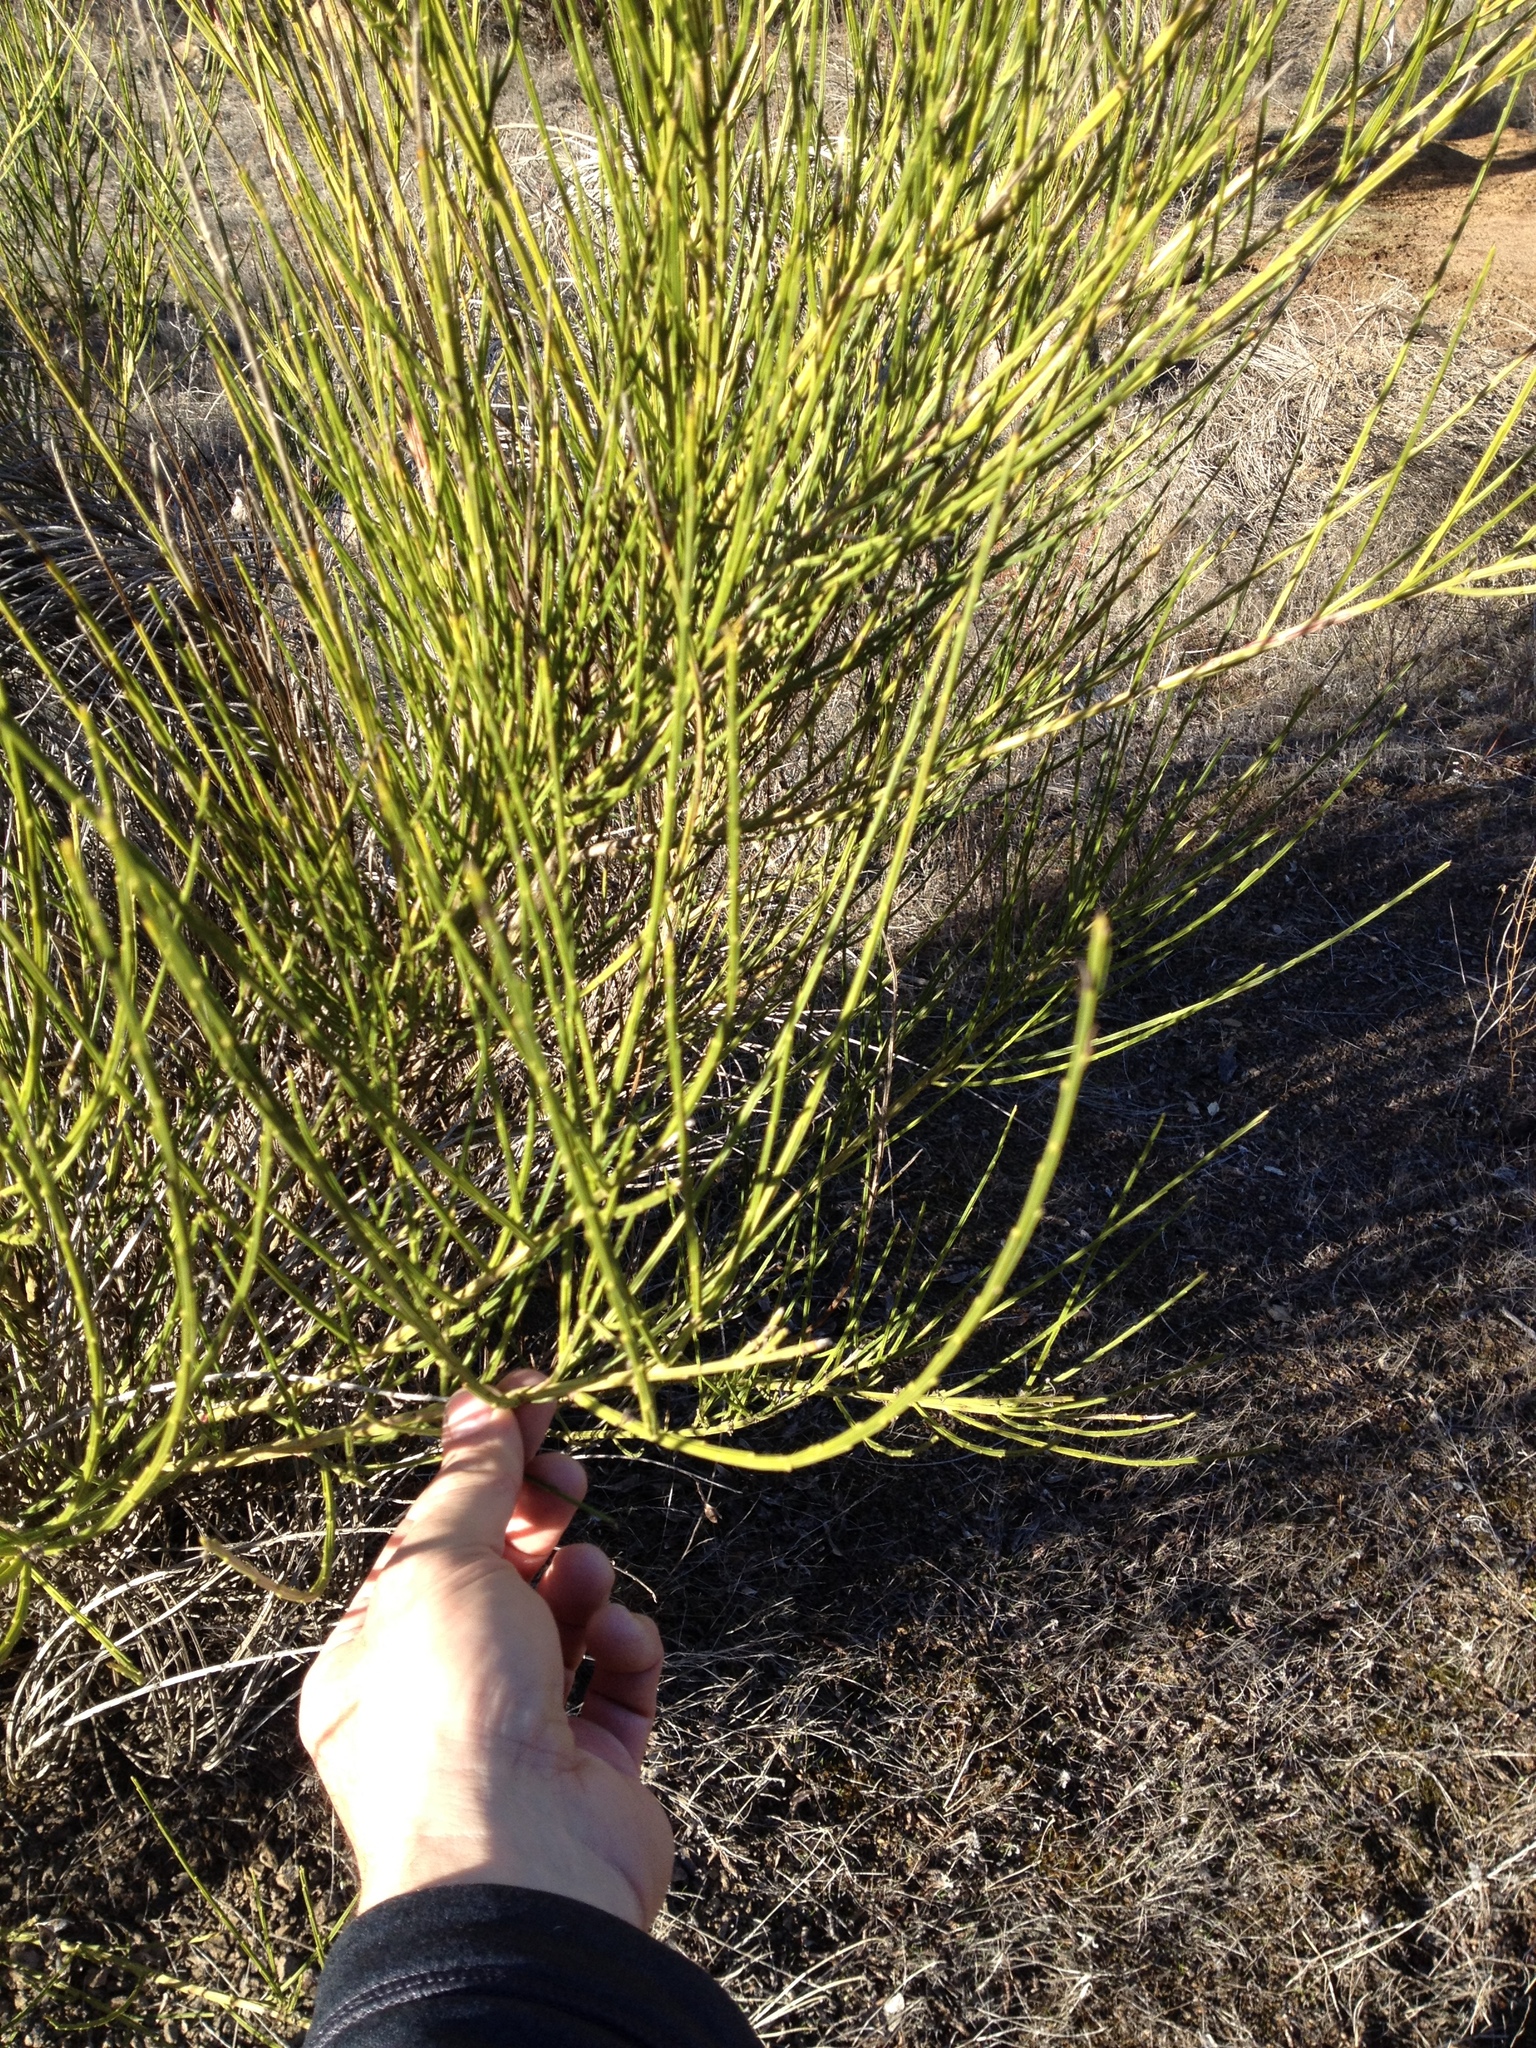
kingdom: Plantae
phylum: Tracheophyta
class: Magnoliopsida
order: Fabales
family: Fabaceae
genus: Cytisus
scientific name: Cytisus scoparius
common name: Scotch broom
